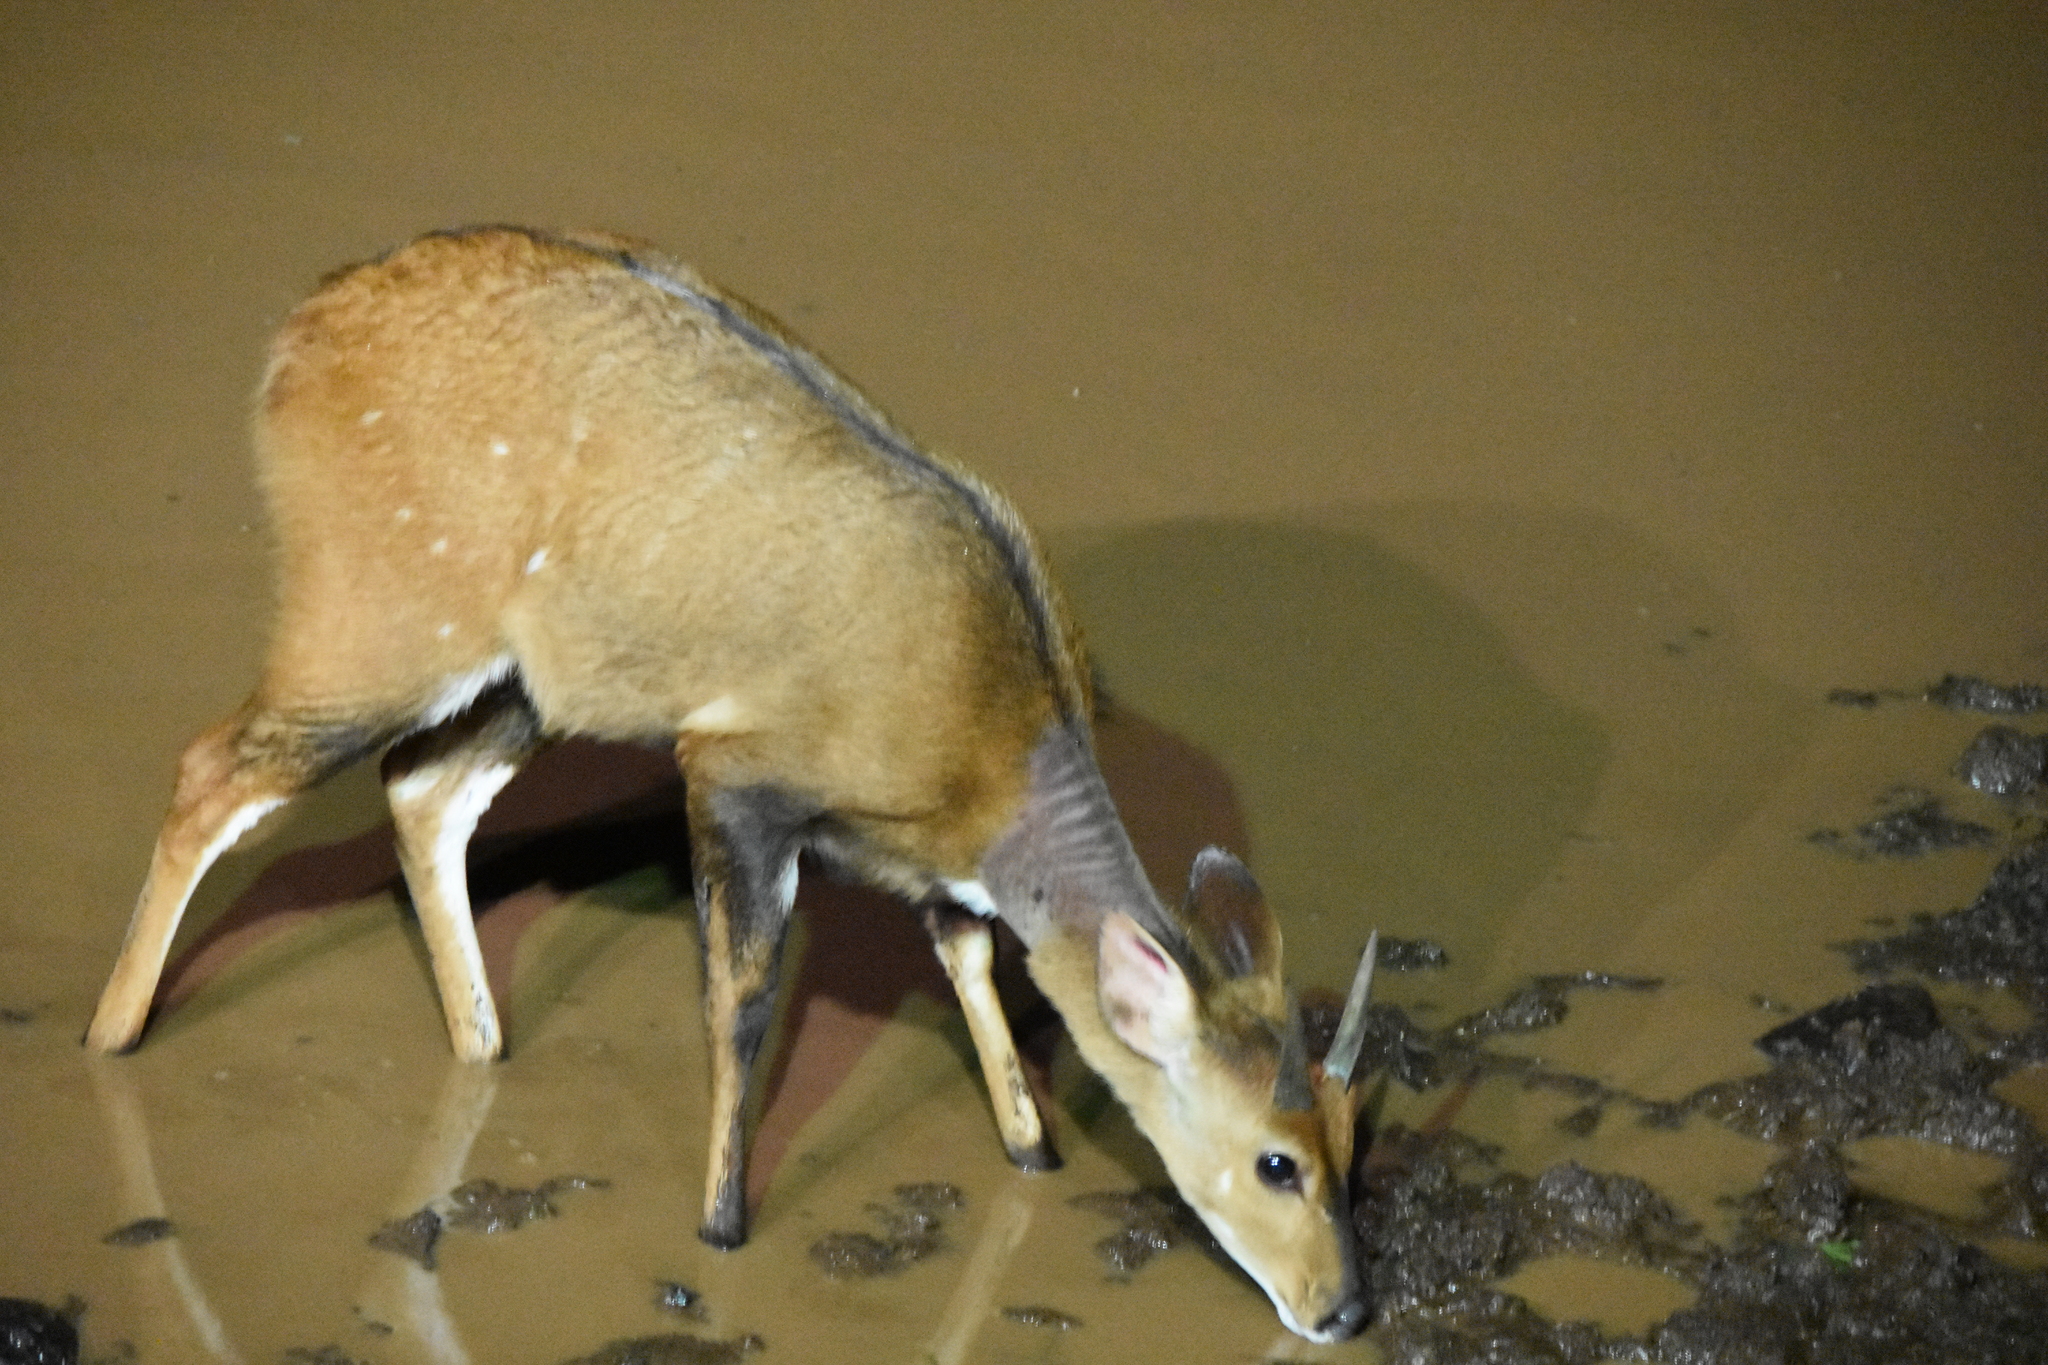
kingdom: Animalia
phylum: Chordata
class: Mammalia
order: Artiodactyla
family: Bovidae
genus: Tragelaphus
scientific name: Tragelaphus scriptus
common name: Bushbuck
